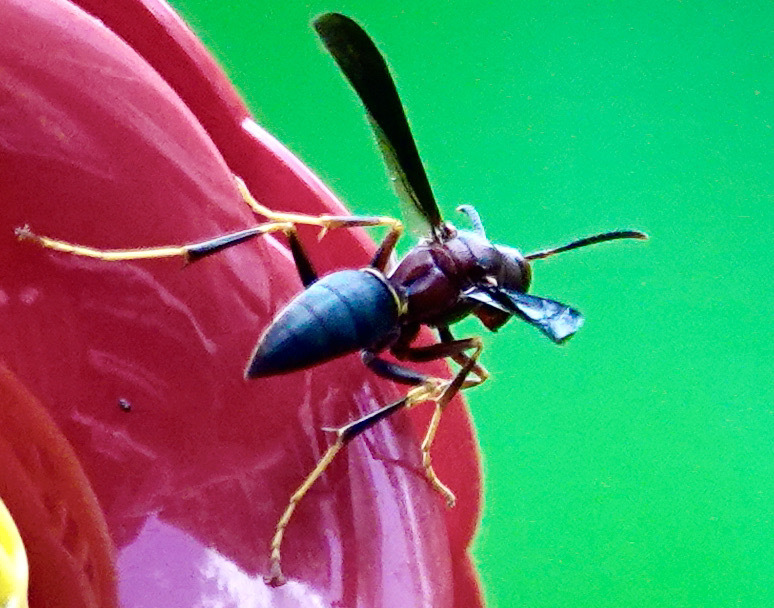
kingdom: Animalia
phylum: Arthropoda
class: Insecta
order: Hymenoptera
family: Eumenidae
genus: Polistes
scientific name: Polistes annularis
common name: Ringed paper wasp
